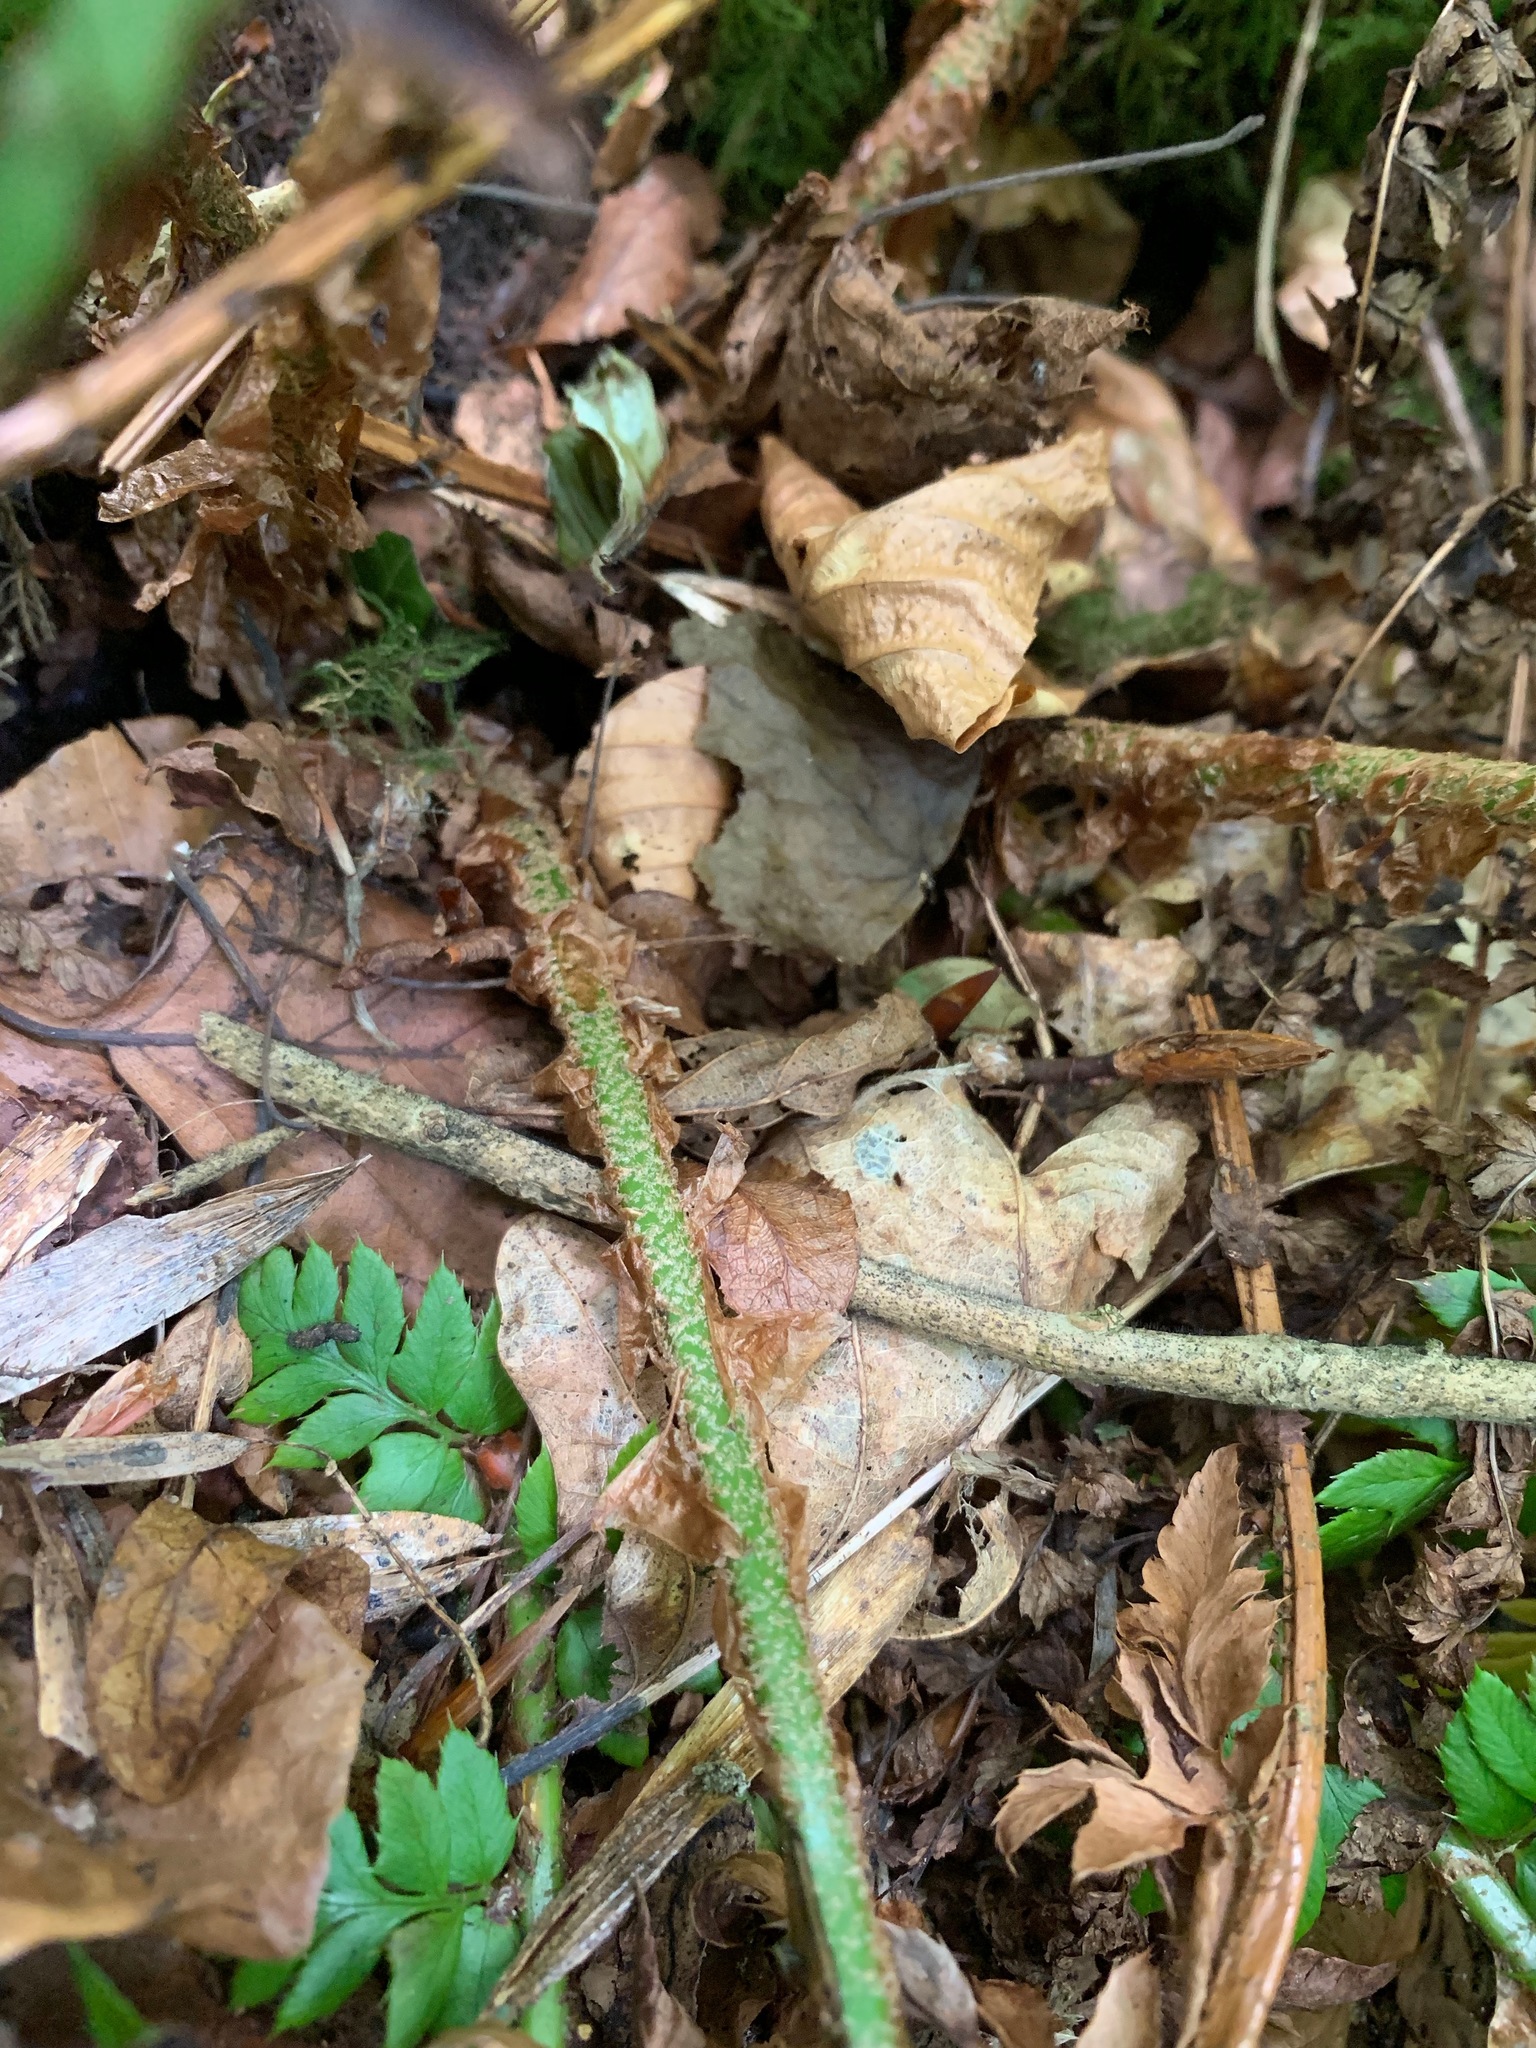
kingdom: Plantae
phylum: Tracheophyta
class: Polypodiopsida
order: Polypodiales
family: Dryopteridaceae
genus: Polystichum
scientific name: Polystichum aculeatum
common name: Hard shield-fern
